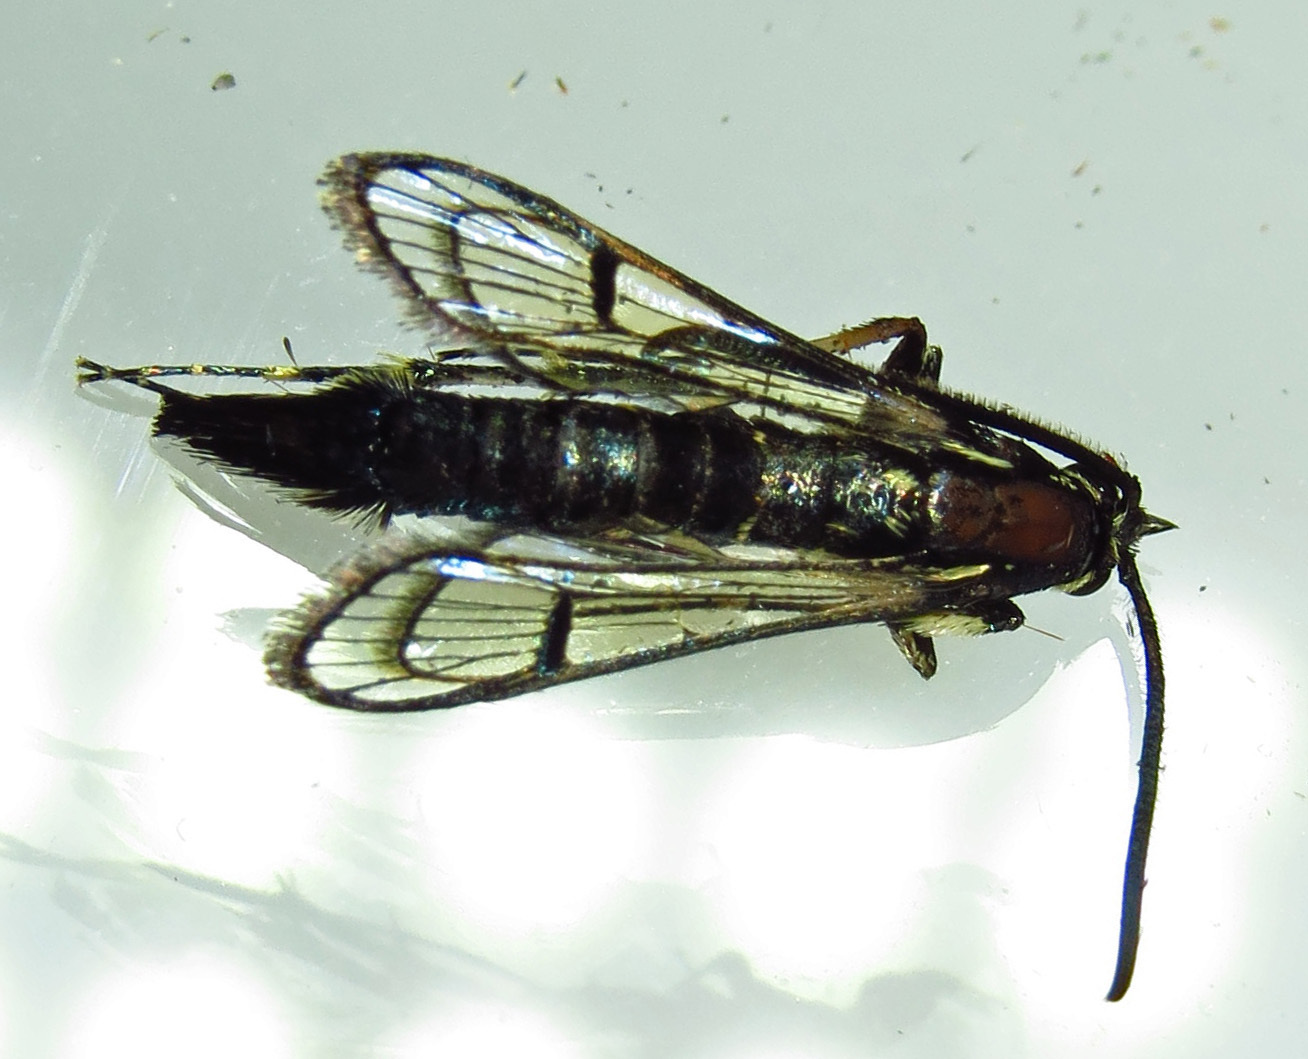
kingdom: Animalia
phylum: Arthropoda
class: Insecta
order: Lepidoptera
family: Sesiidae
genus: Synanthedon
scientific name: Synanthedon exitiosa
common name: Peachtree borer moth
